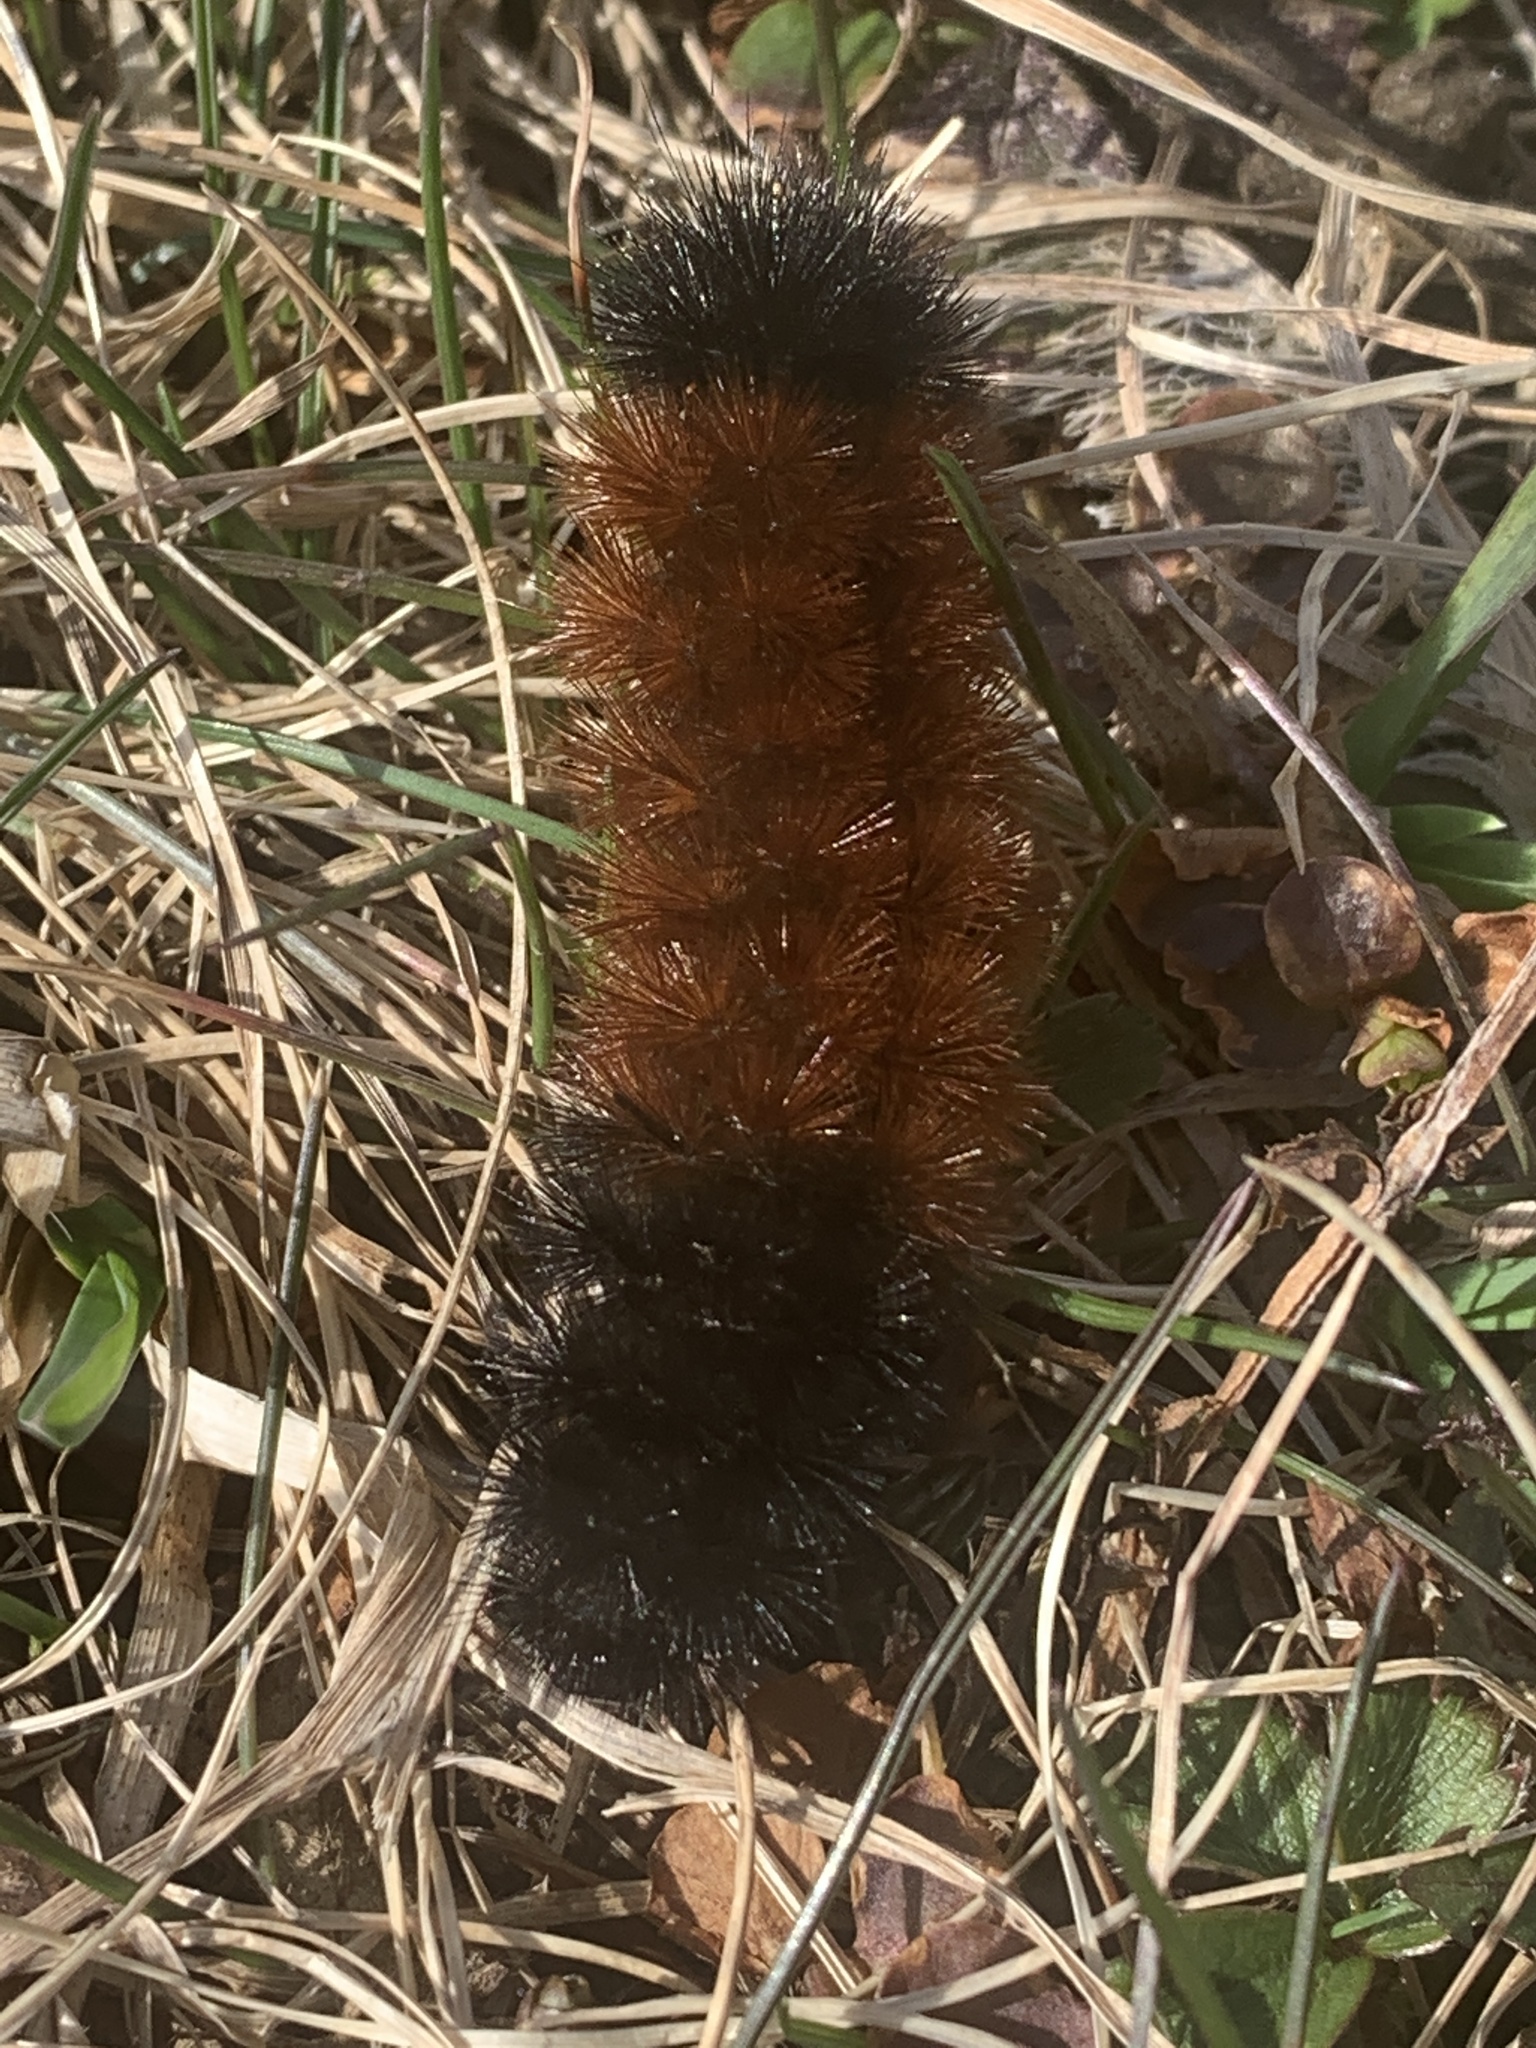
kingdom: Animalia
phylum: Arthropoda
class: Insecta
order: Lepidoptera
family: Erebidae
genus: Pyrrharctia
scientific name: Pyrrharctia isabella
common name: Isabella tiger moth
